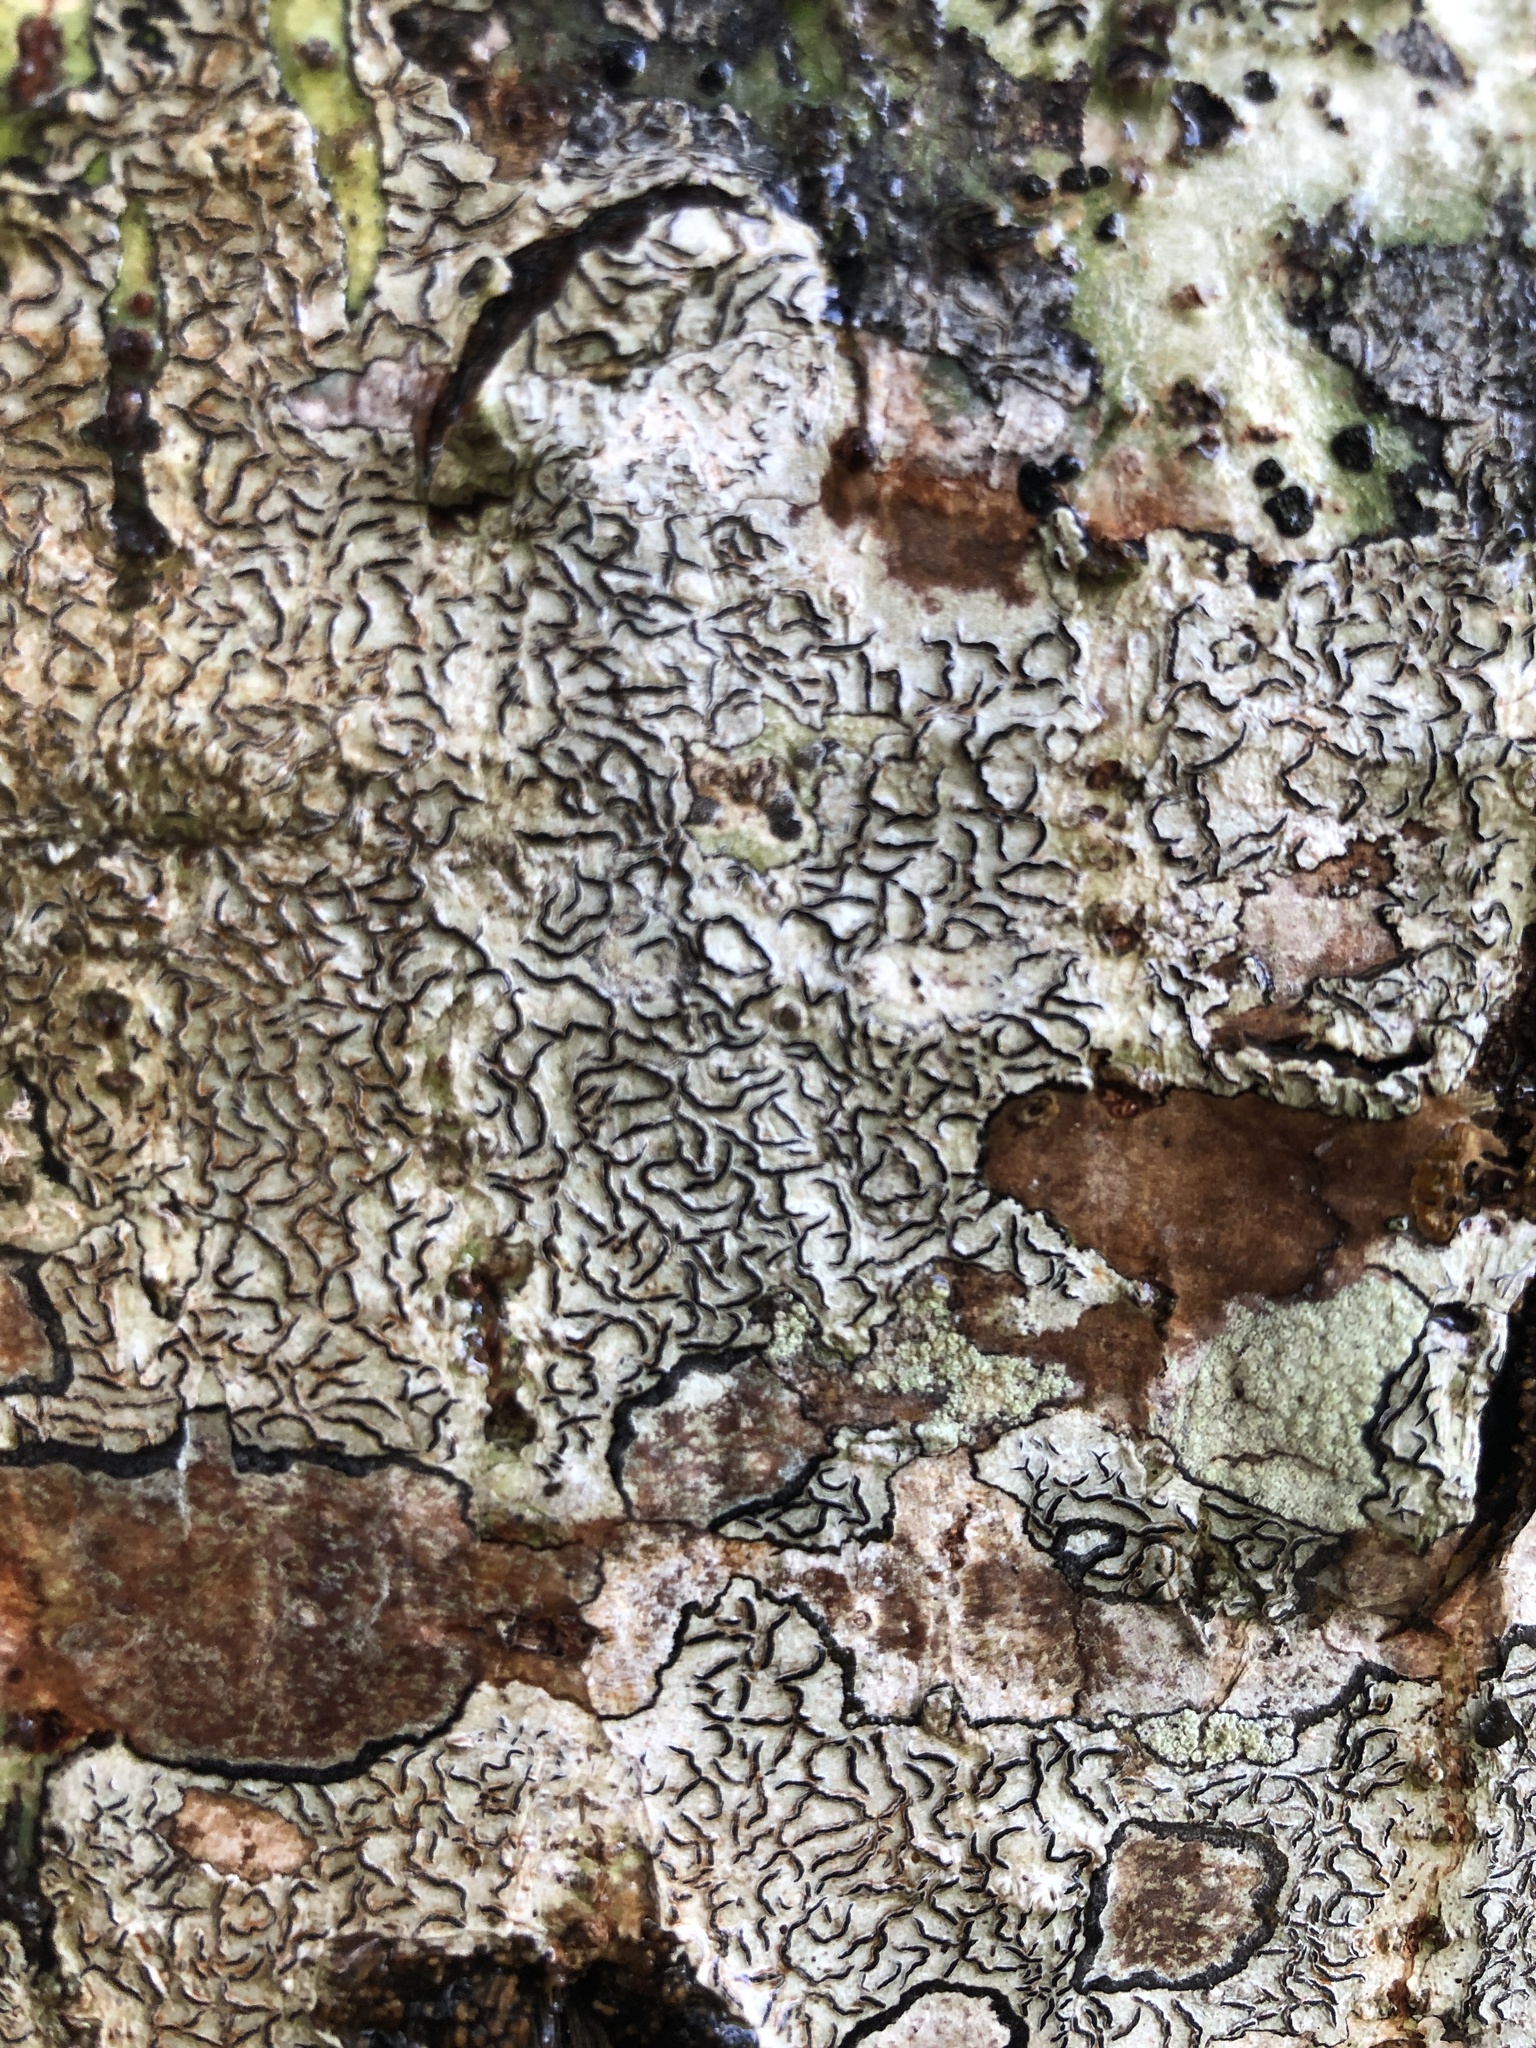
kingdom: Fungi
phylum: Ascomycota
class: Lecanoromycetes
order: Ostropales
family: Graphidaceae
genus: Graphis
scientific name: Graphis scripta
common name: Script lichen
